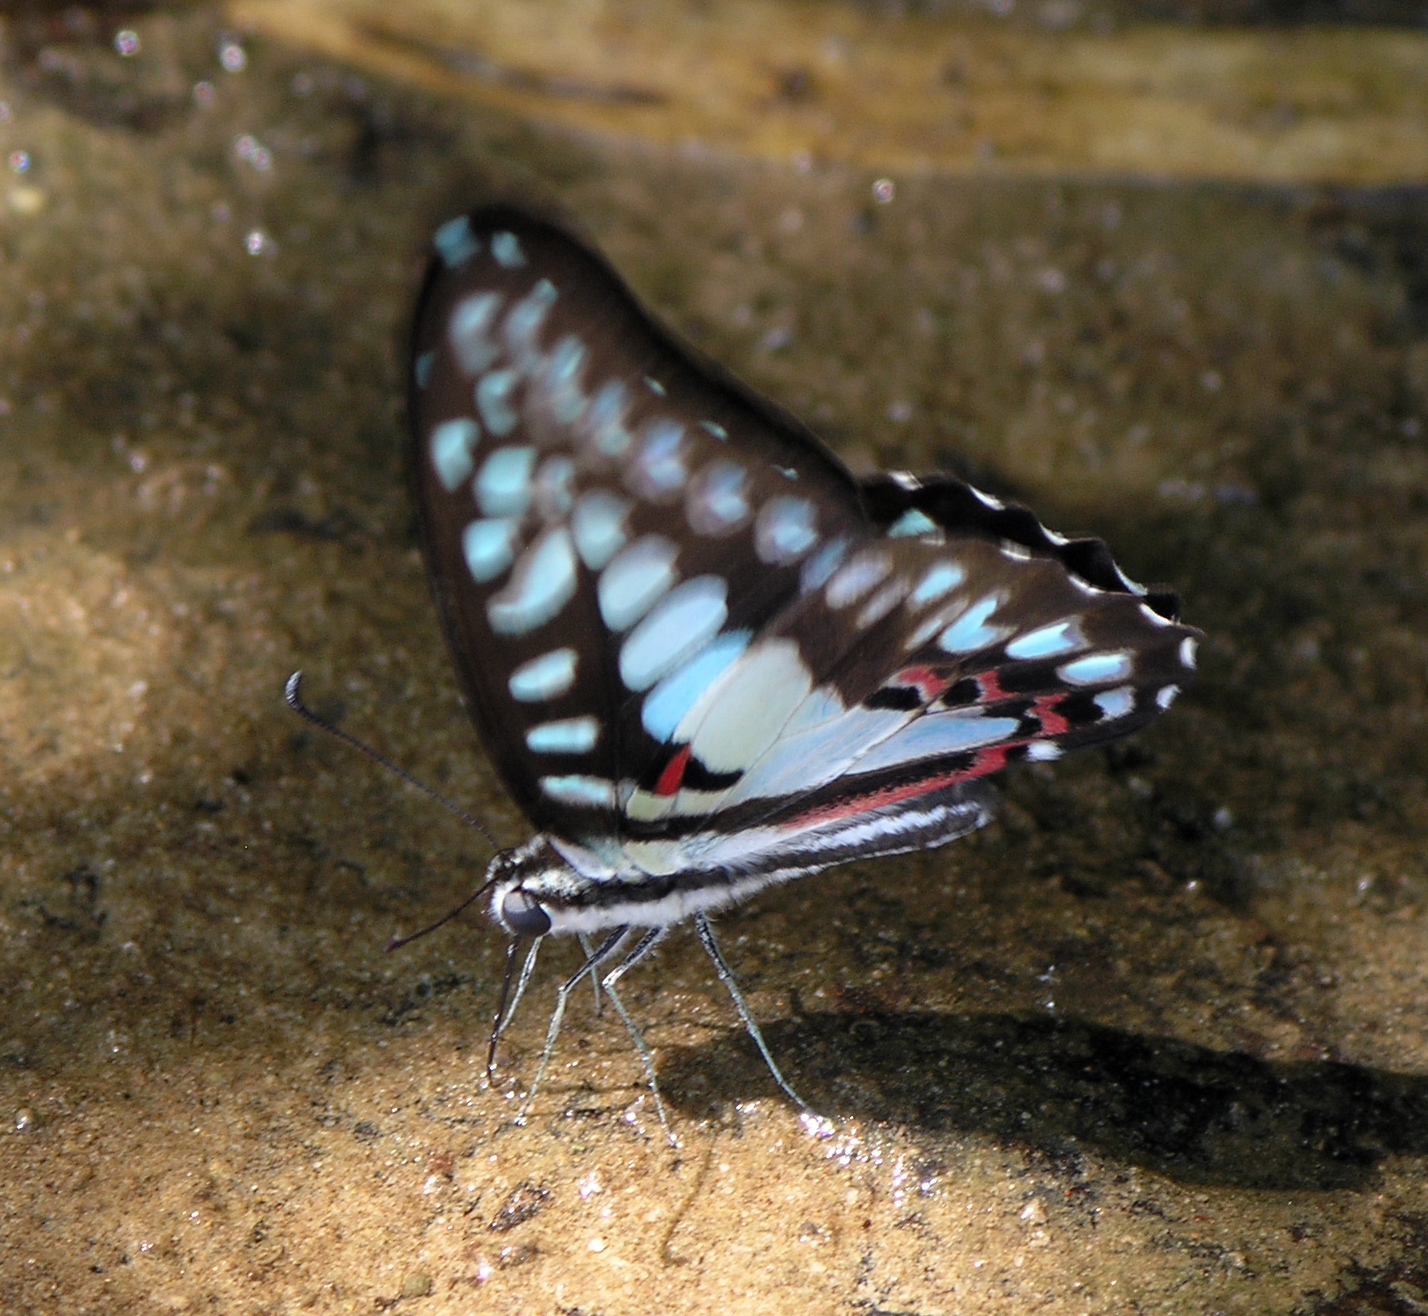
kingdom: Animalia
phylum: Arthropoda
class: Insecta
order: Lepidoptera
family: Papilionidae
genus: Graphium
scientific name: Graphium doson
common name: Common jay
